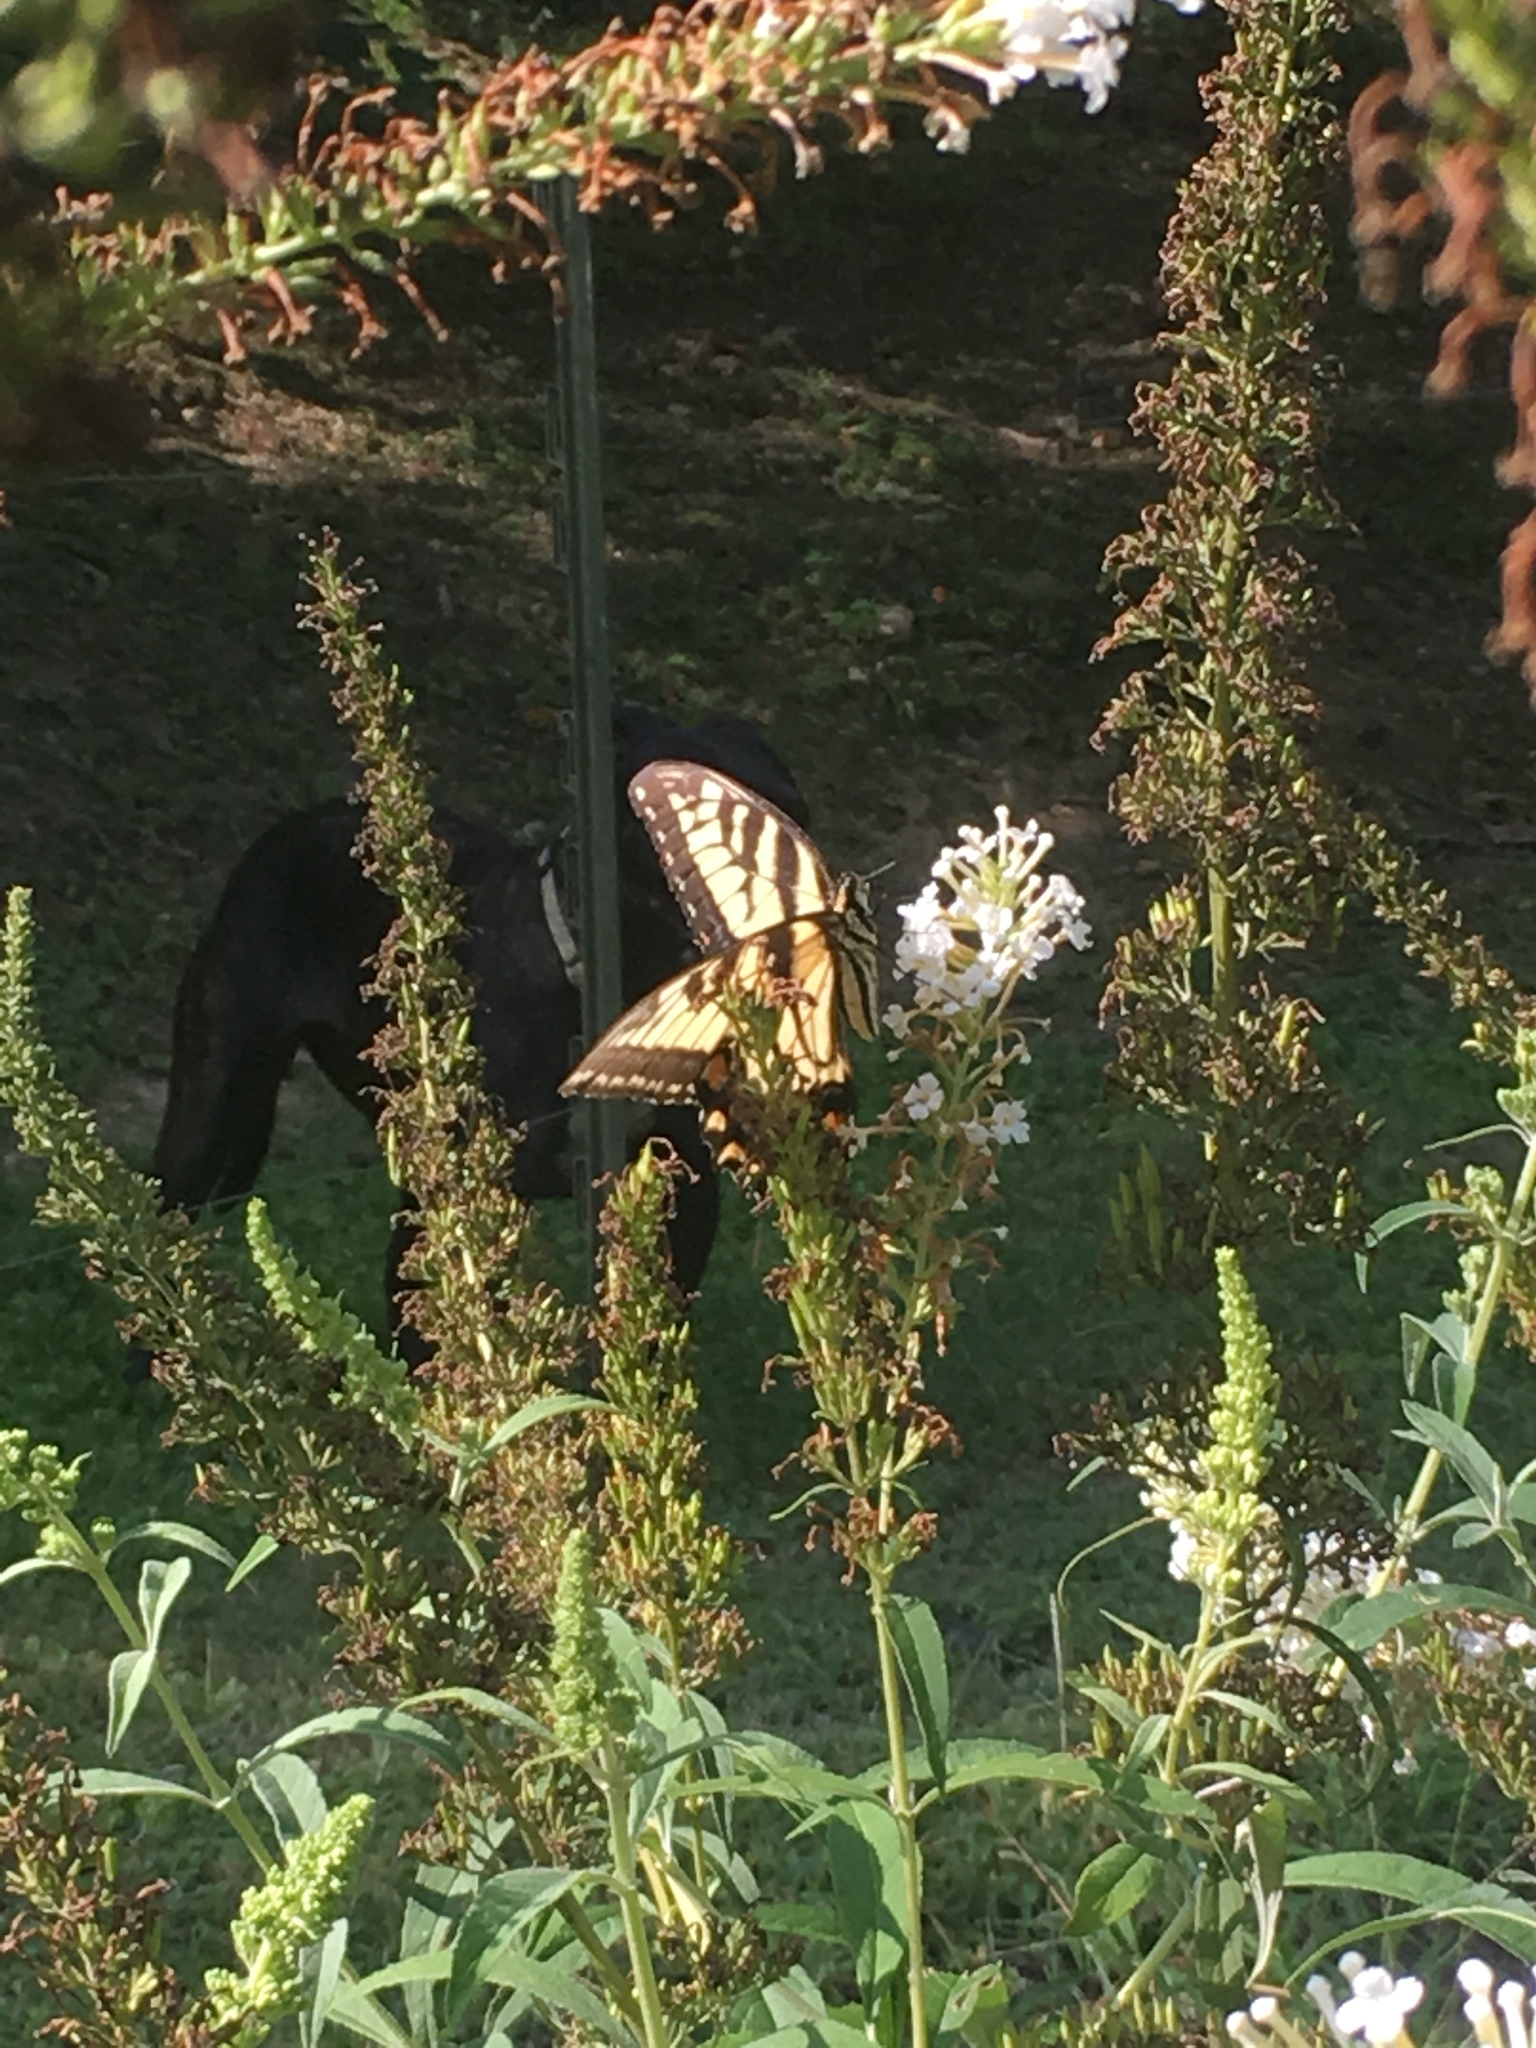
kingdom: Animalia
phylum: Arthropoda
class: Insecta
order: Lepidoptera
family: Papilionidae
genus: Papilio
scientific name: Papilio glaucus
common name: Tiger swallowtail
